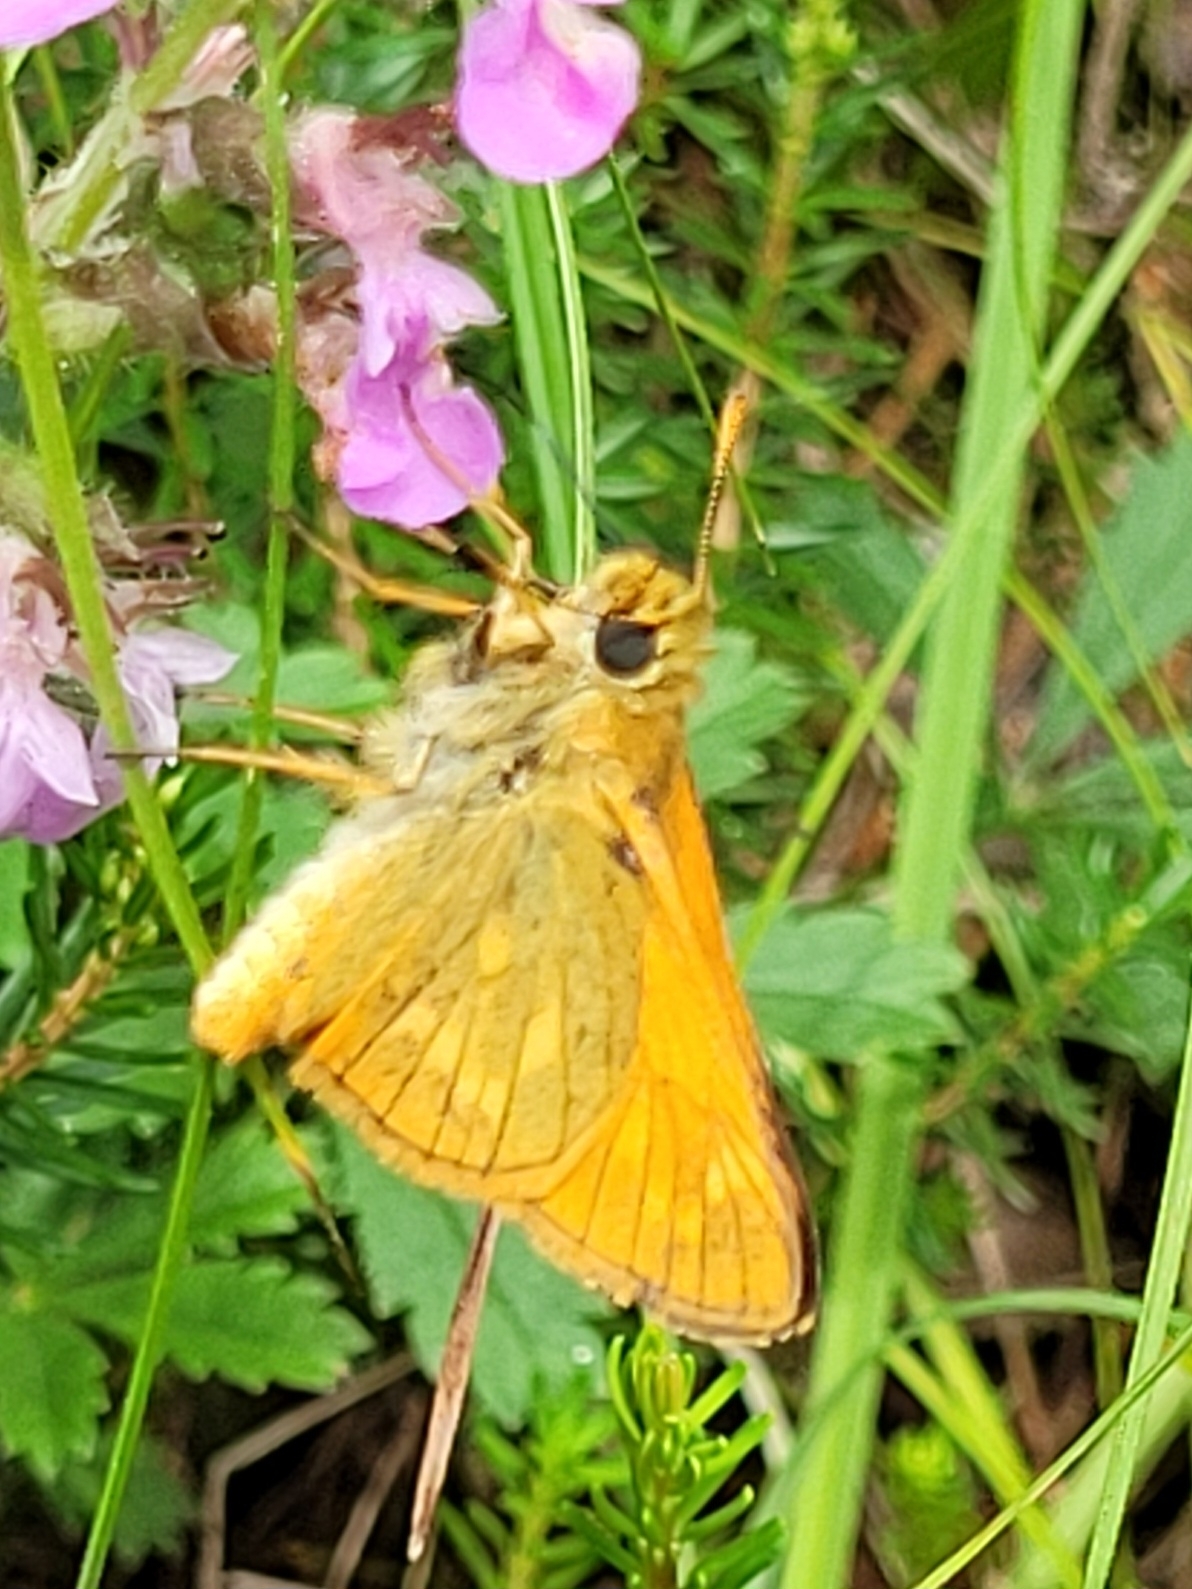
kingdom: Animalia
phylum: Arthropoda
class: Insecta
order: Lepidoptera
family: Hesperiidae
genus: Ochlodes
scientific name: Ochlodes venata
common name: Large skipper
